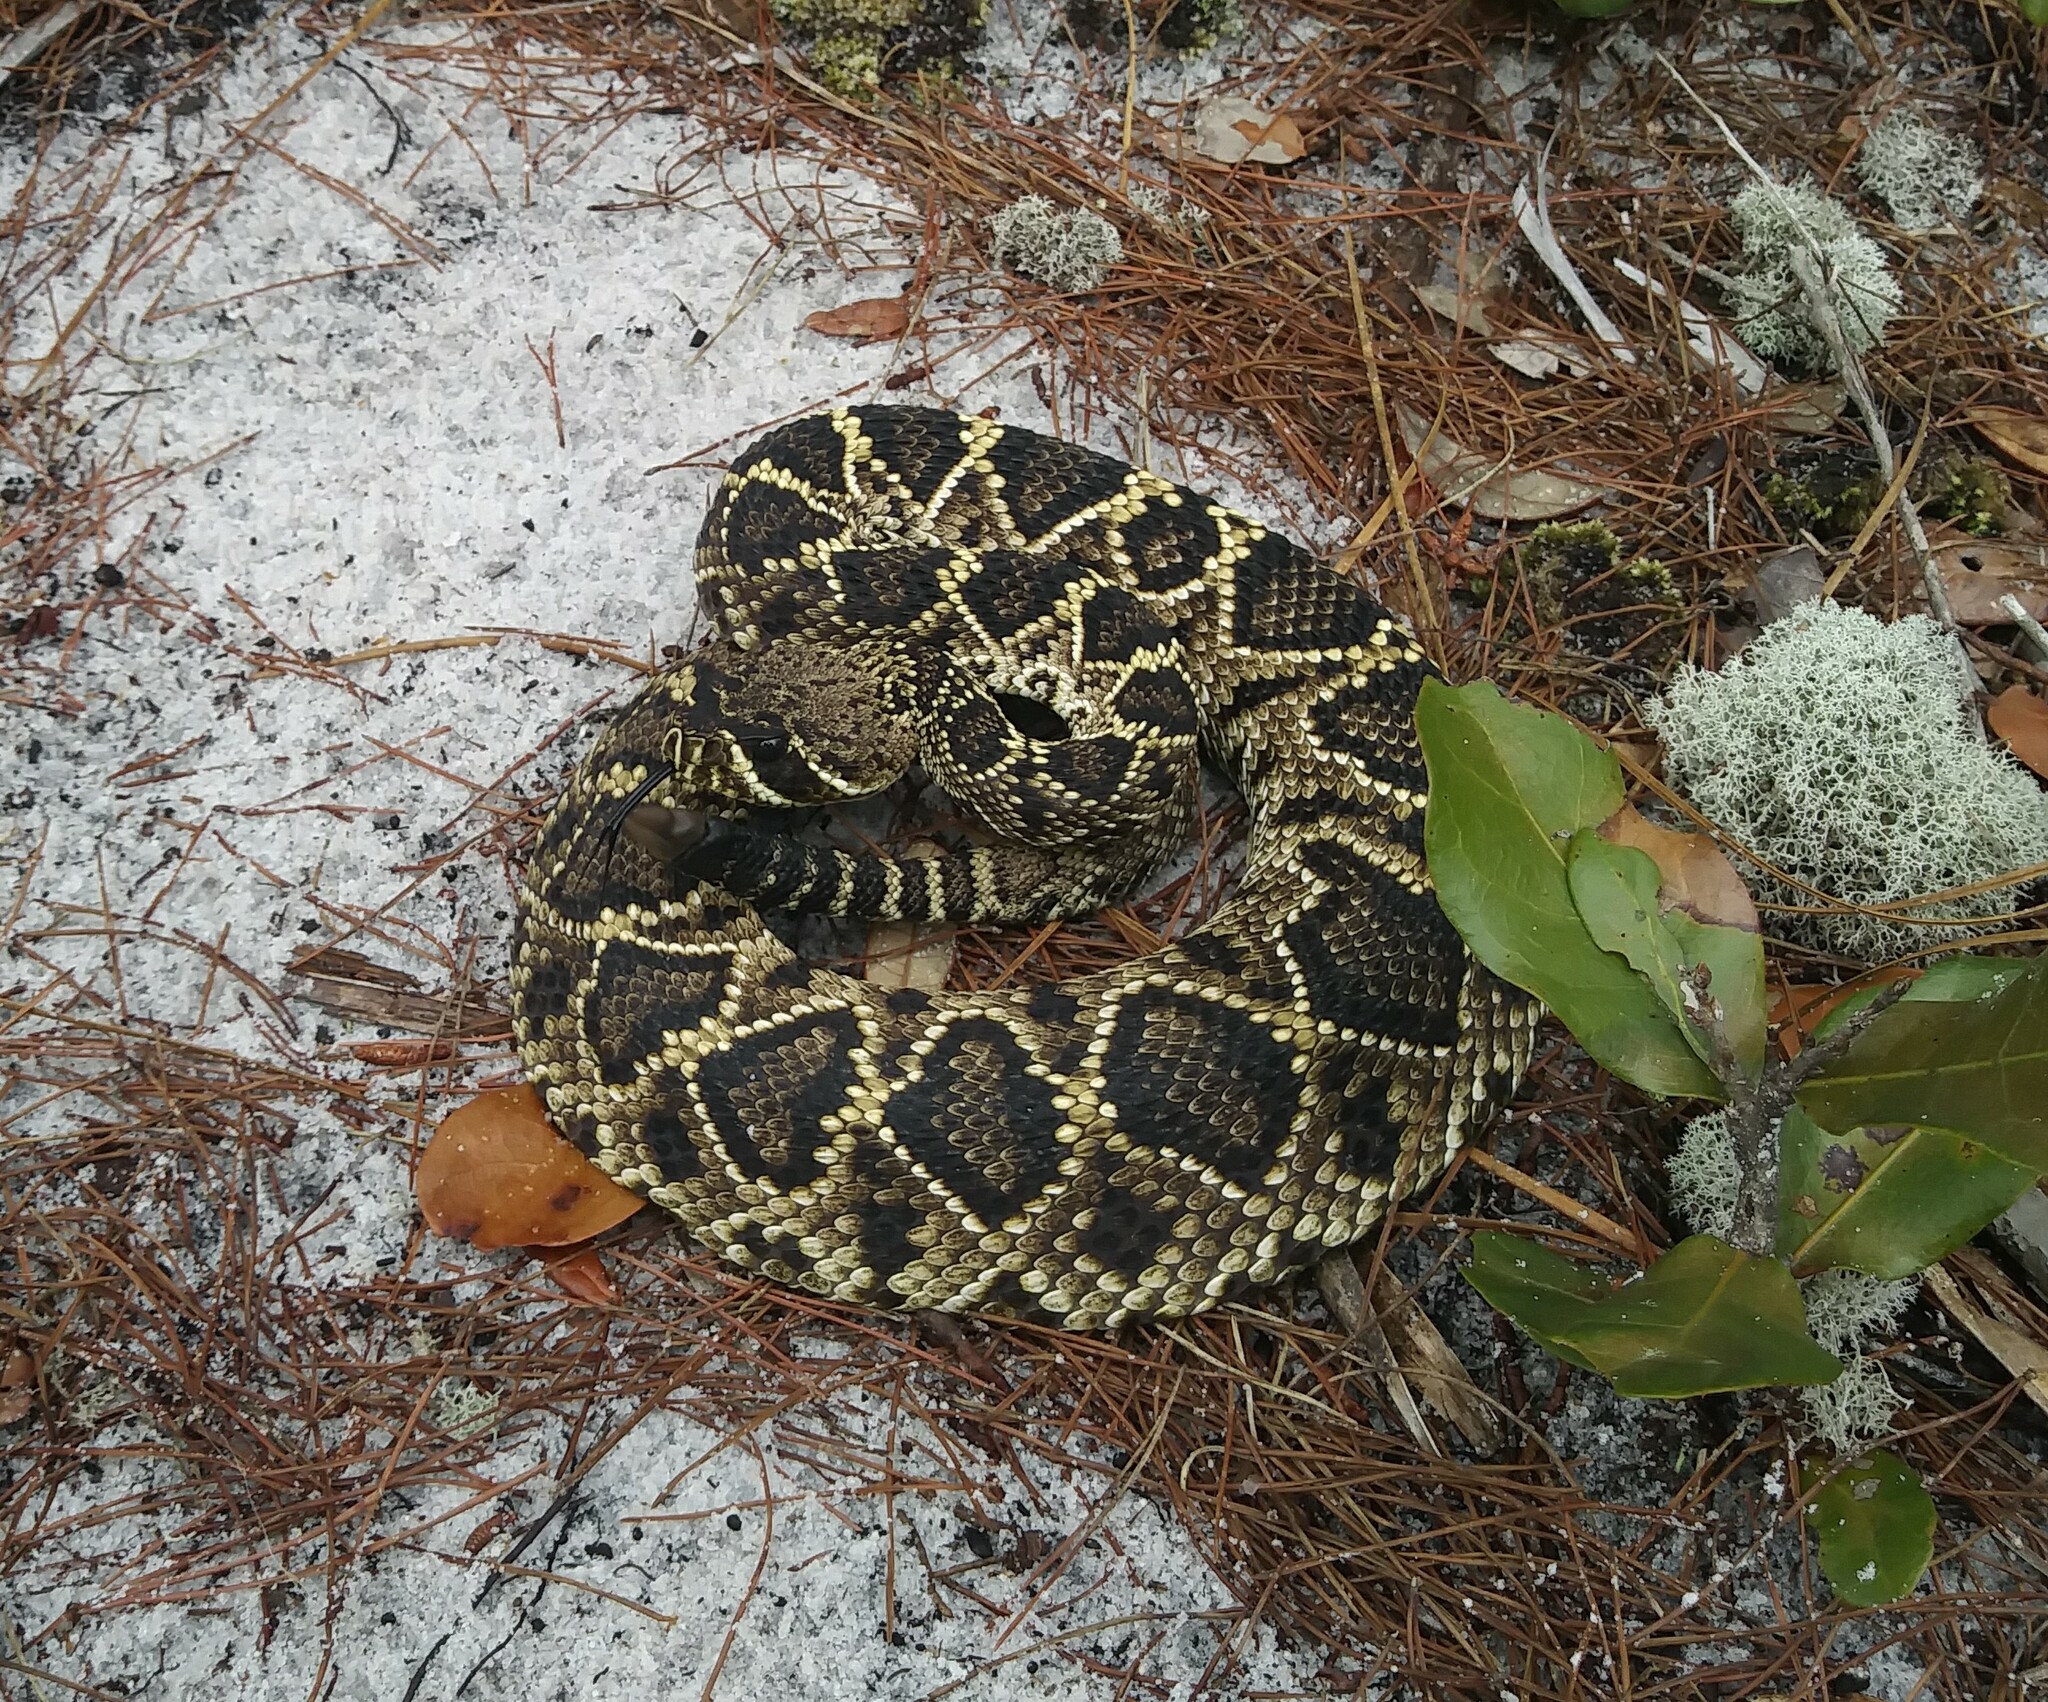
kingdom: Animalia
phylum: Chordata
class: Squamata
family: Viperidae
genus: Crotalus
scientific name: Crotalus adamanteus
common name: Eastern diamondback rattlesnake
